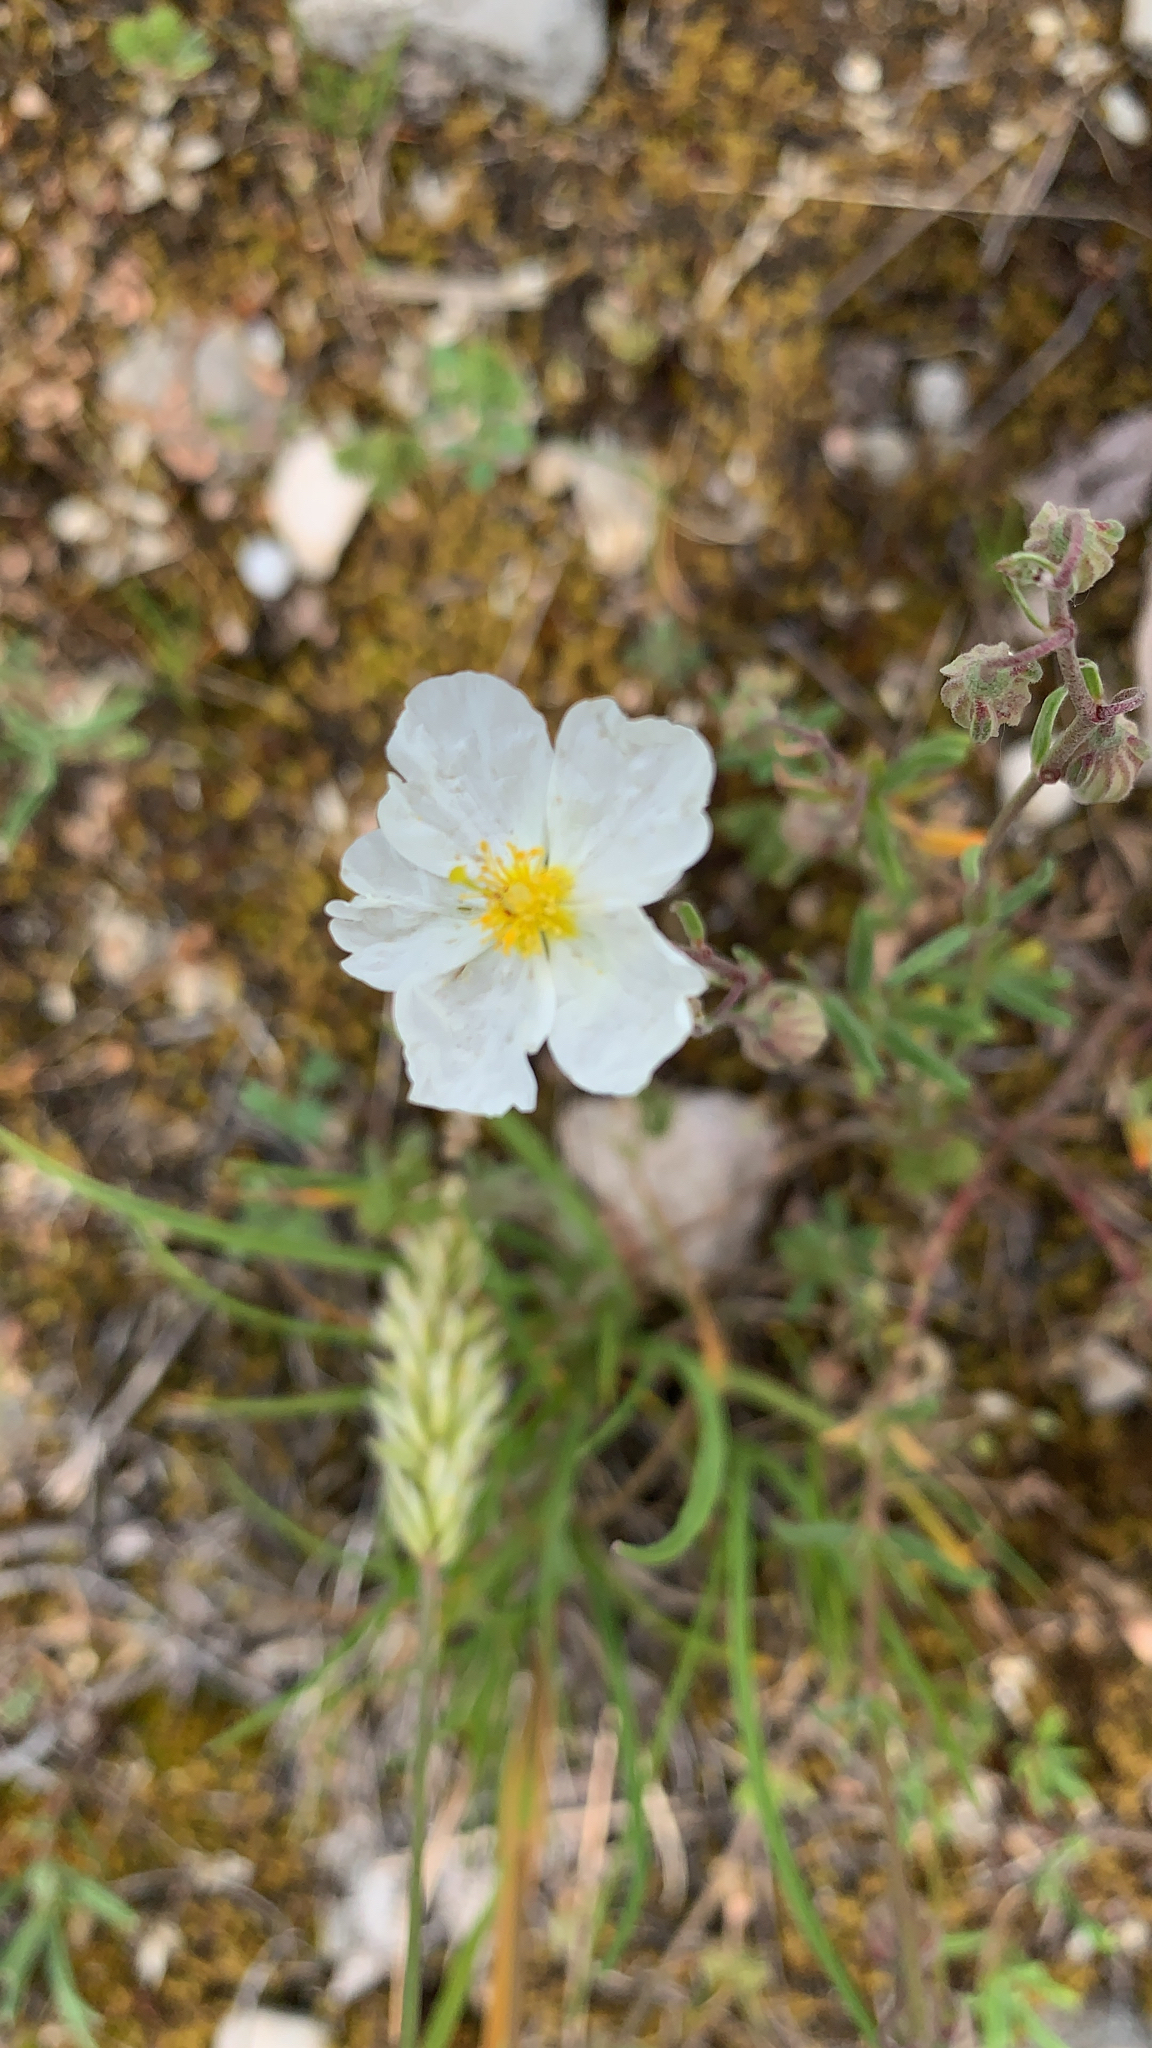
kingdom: Plantae
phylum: Tracheophyta
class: Magnoliopsida
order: Malvales
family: Cistaceae
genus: Helianthemum
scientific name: Helianthemum apenninum
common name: White rock-rose
